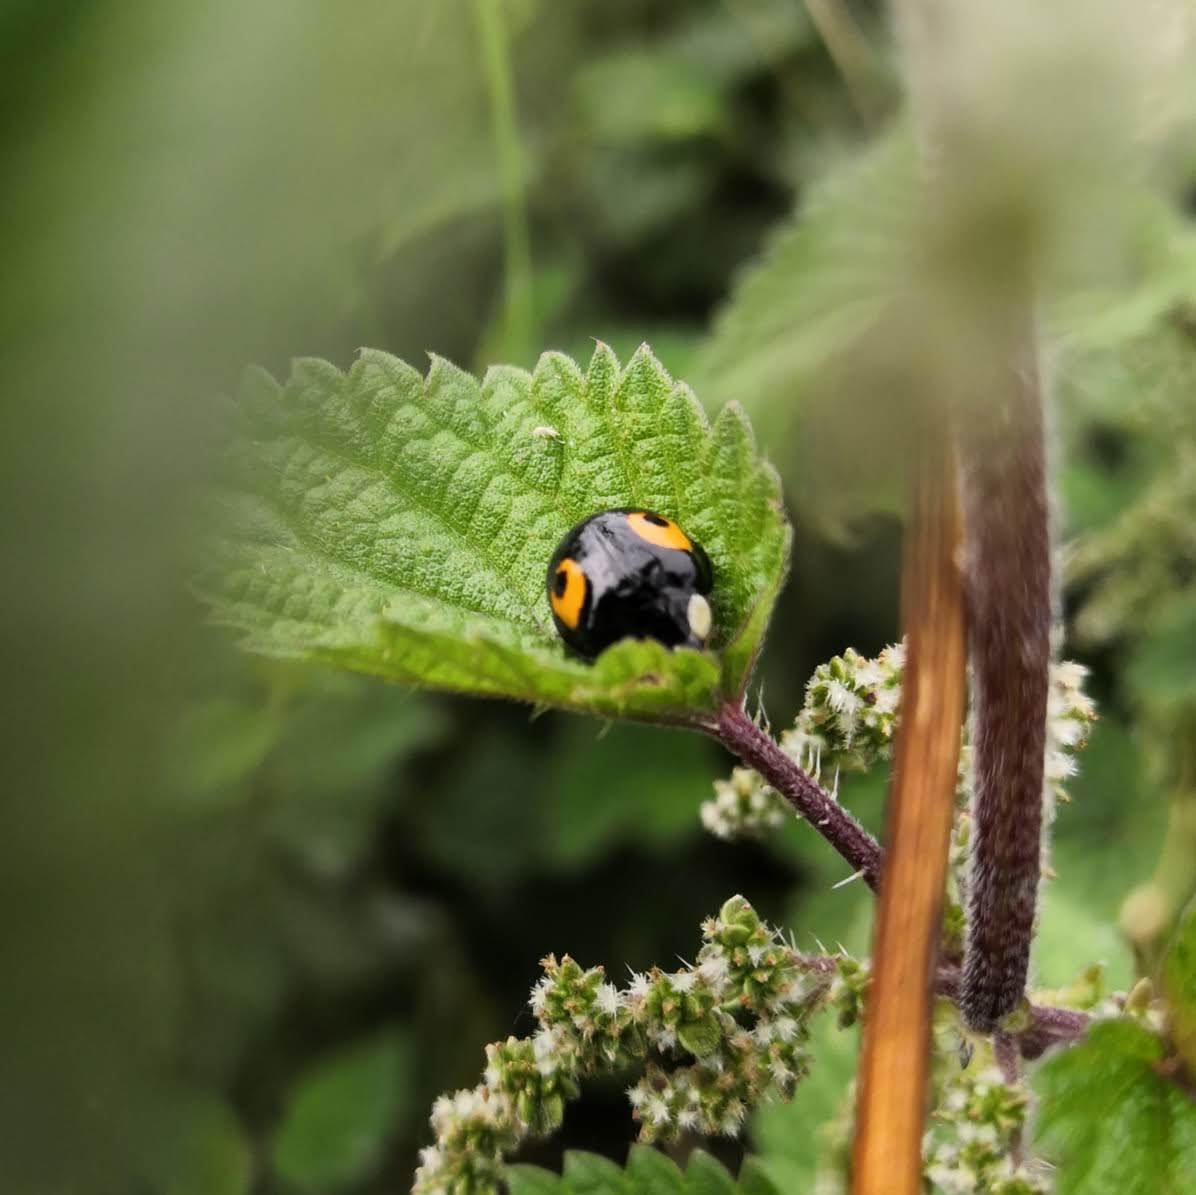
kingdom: Animalia
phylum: Arthropoda
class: Insecta
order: Coleoptera
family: Coccinellidae
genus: Harmonia
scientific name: Harmonia axyridis
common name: Harlequin ladybird
